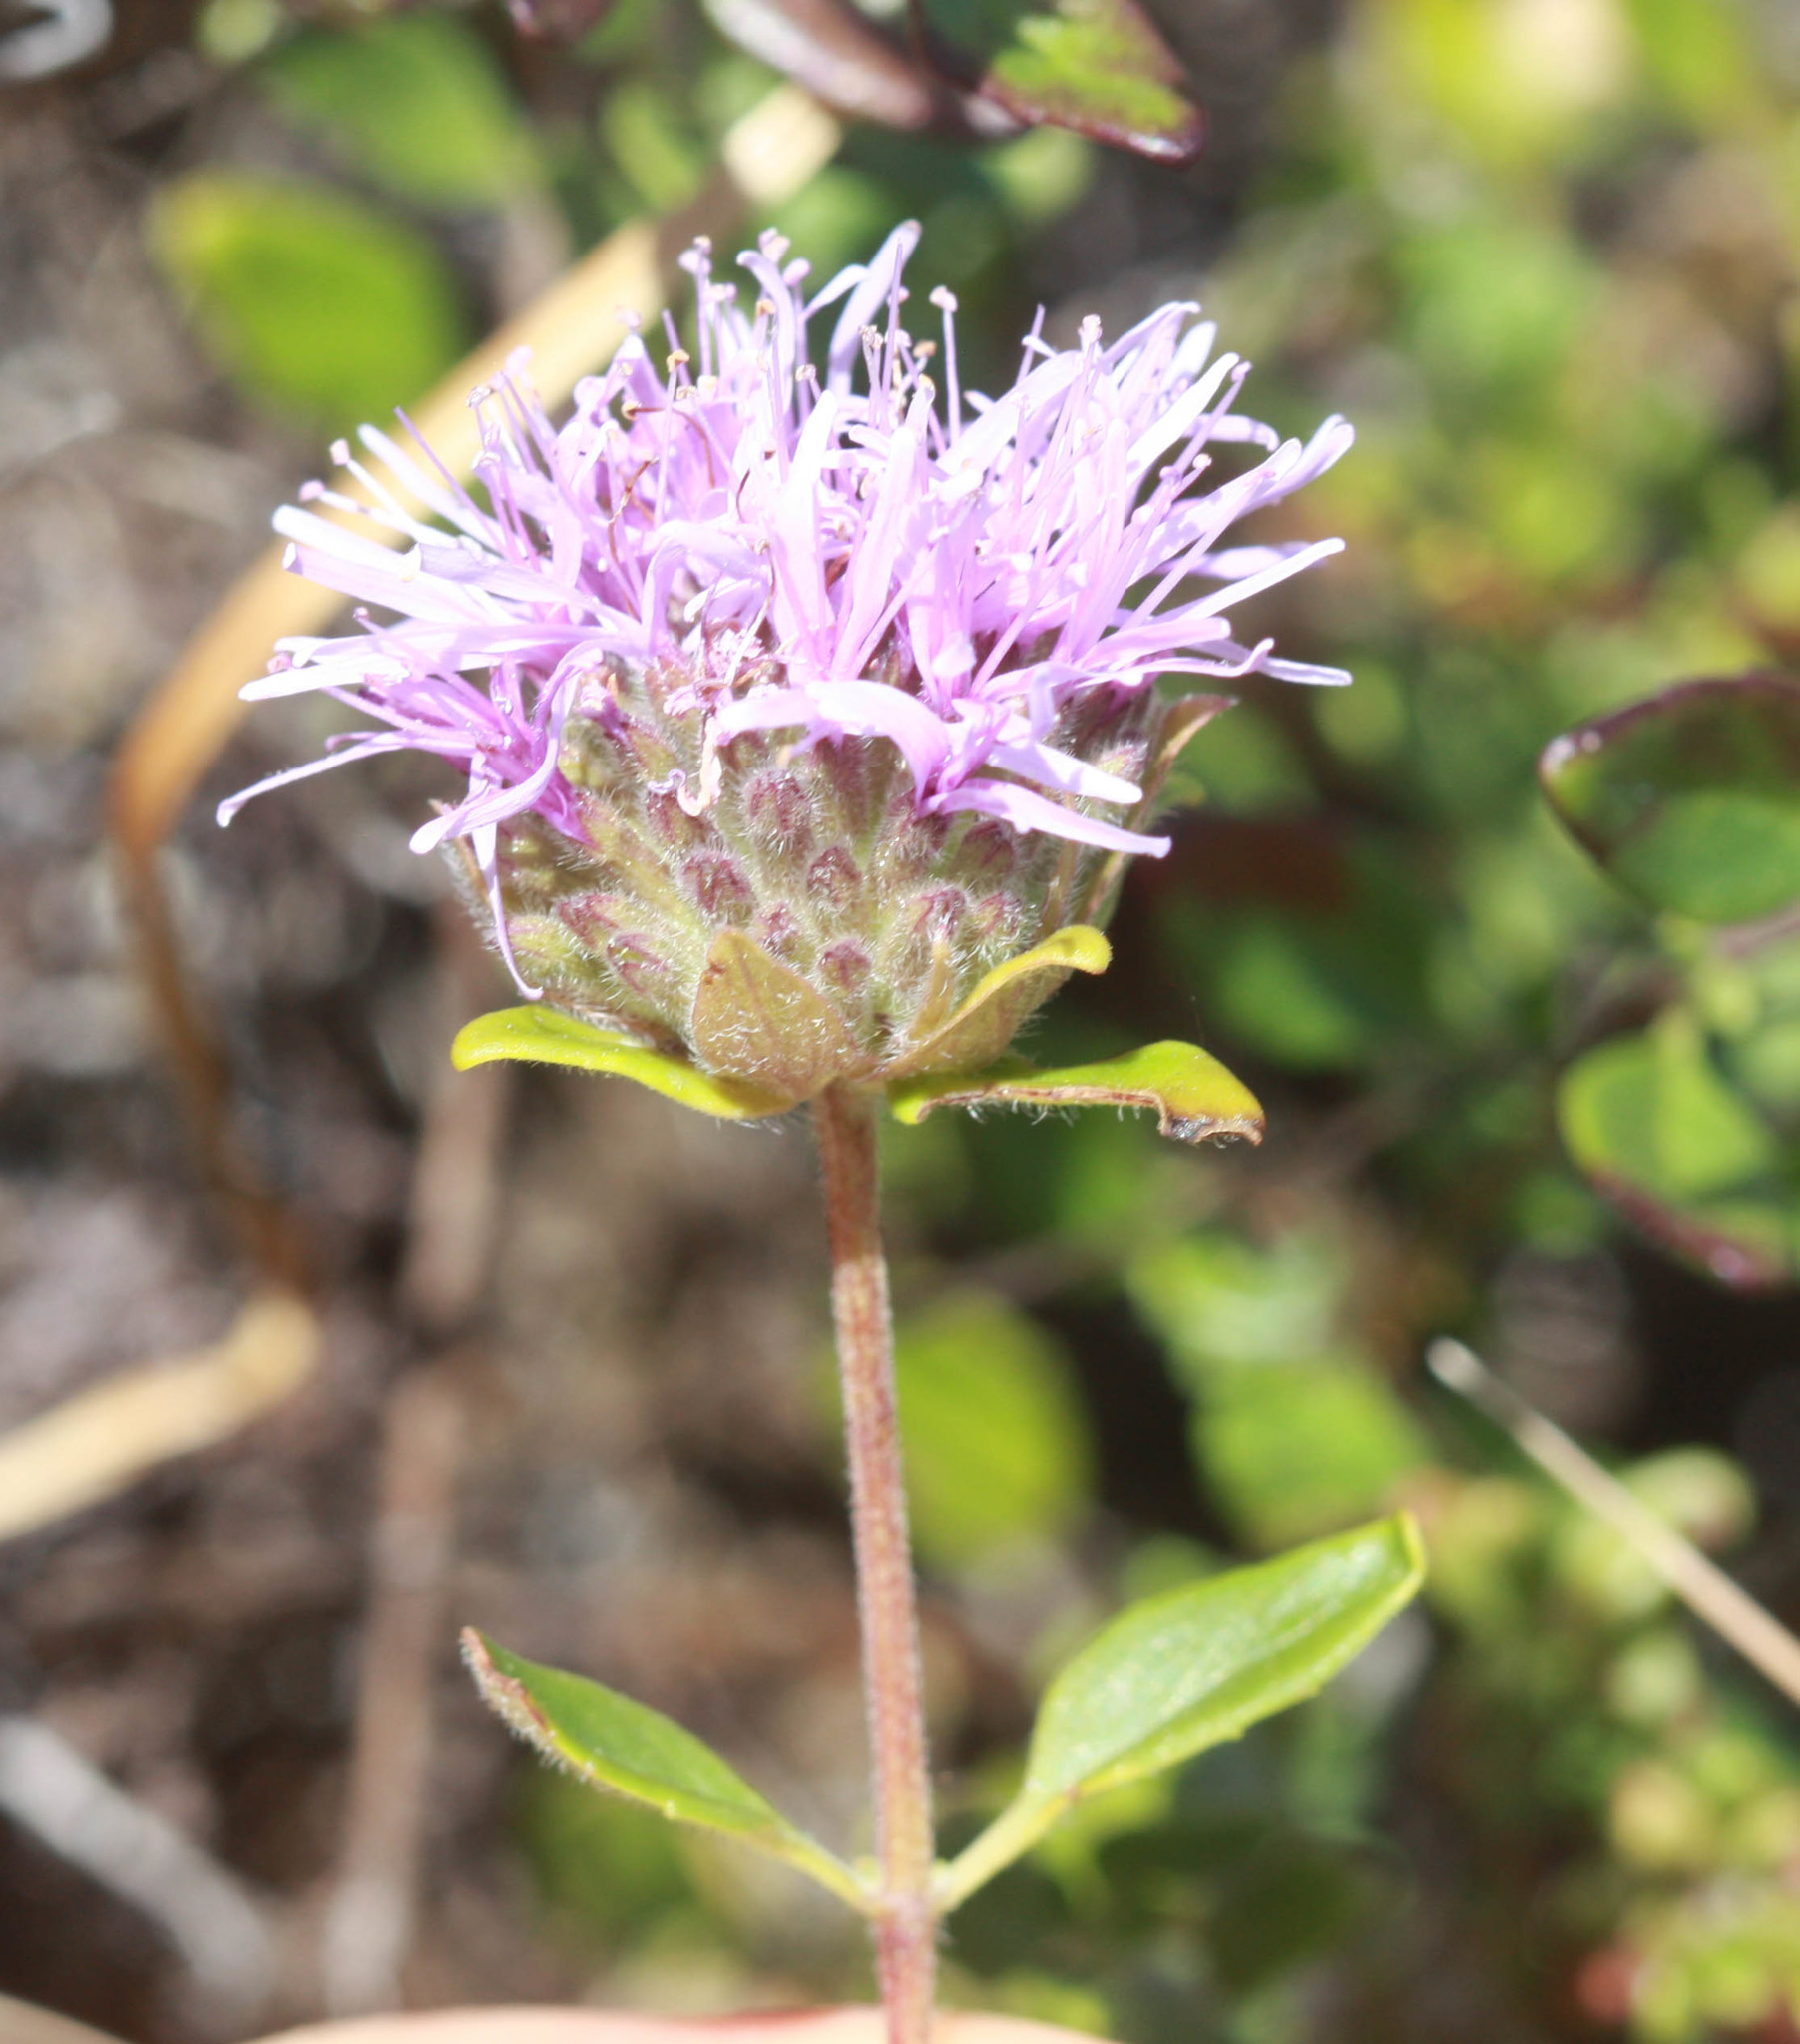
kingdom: Plantae
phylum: Tracheophyta
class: Magnoliopsida
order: Lamiales
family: Lamiaceae
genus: Monardella
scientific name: Monardella purpurea
